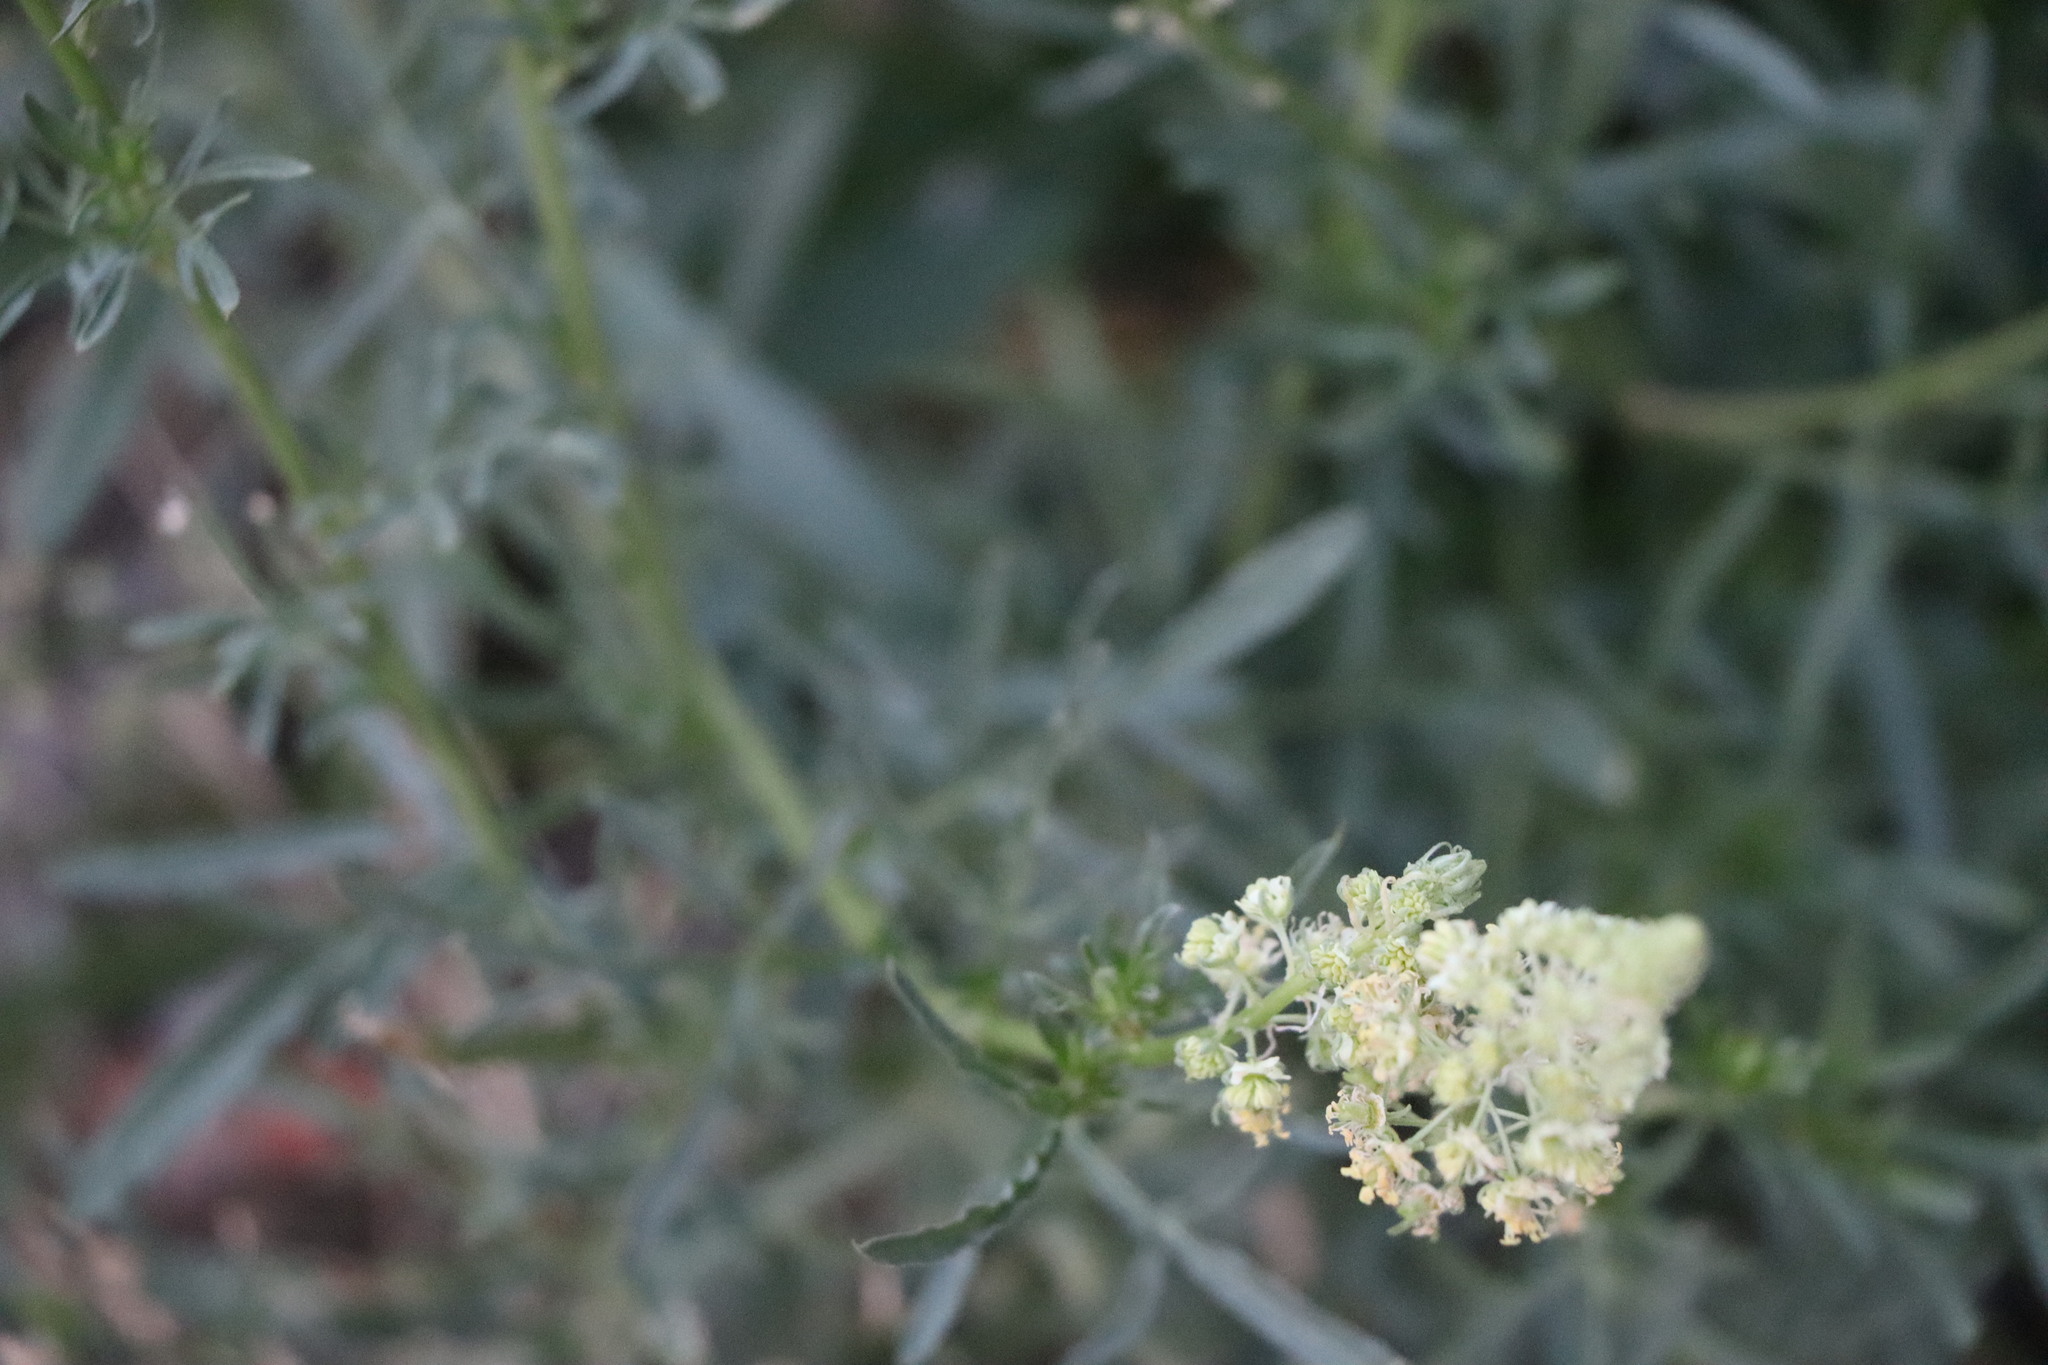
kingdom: Plantae
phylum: Tracheophyta
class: Magnoliopsida
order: Brassicales
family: Resedaceae
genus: Reseda
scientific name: Reseda lutea
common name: Wild mignonette
